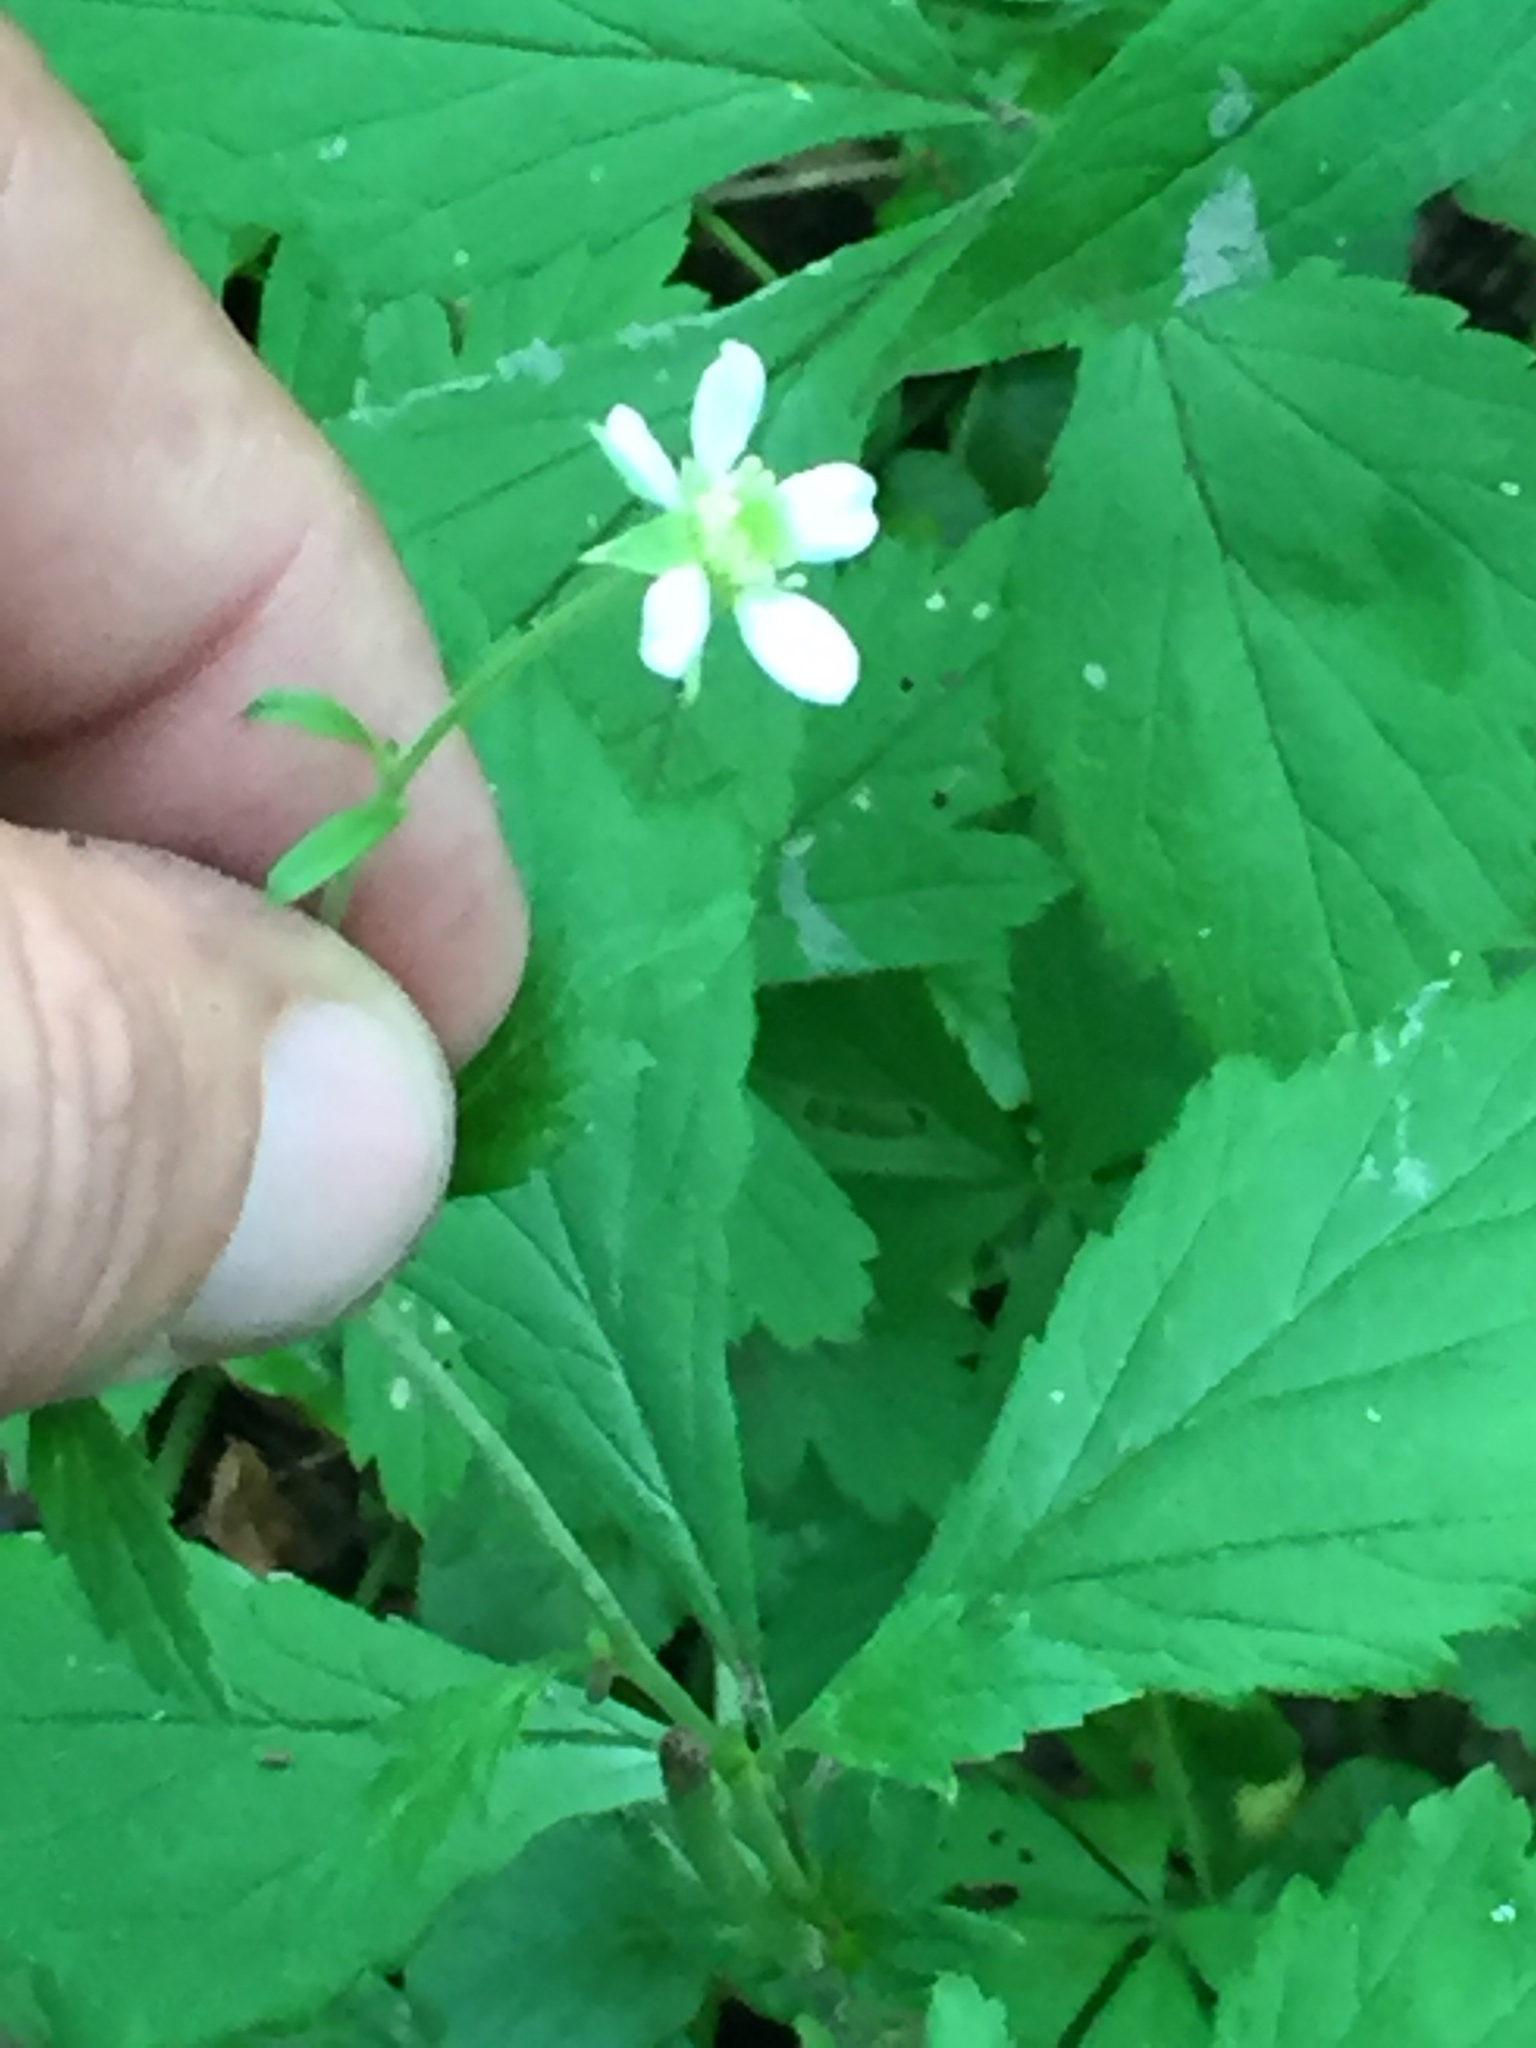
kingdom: Plantae
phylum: Tracheophyta
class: Magnoliopsida
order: Rosales
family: Rosaceae
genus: Geum
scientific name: Geum canadense
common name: White avens
